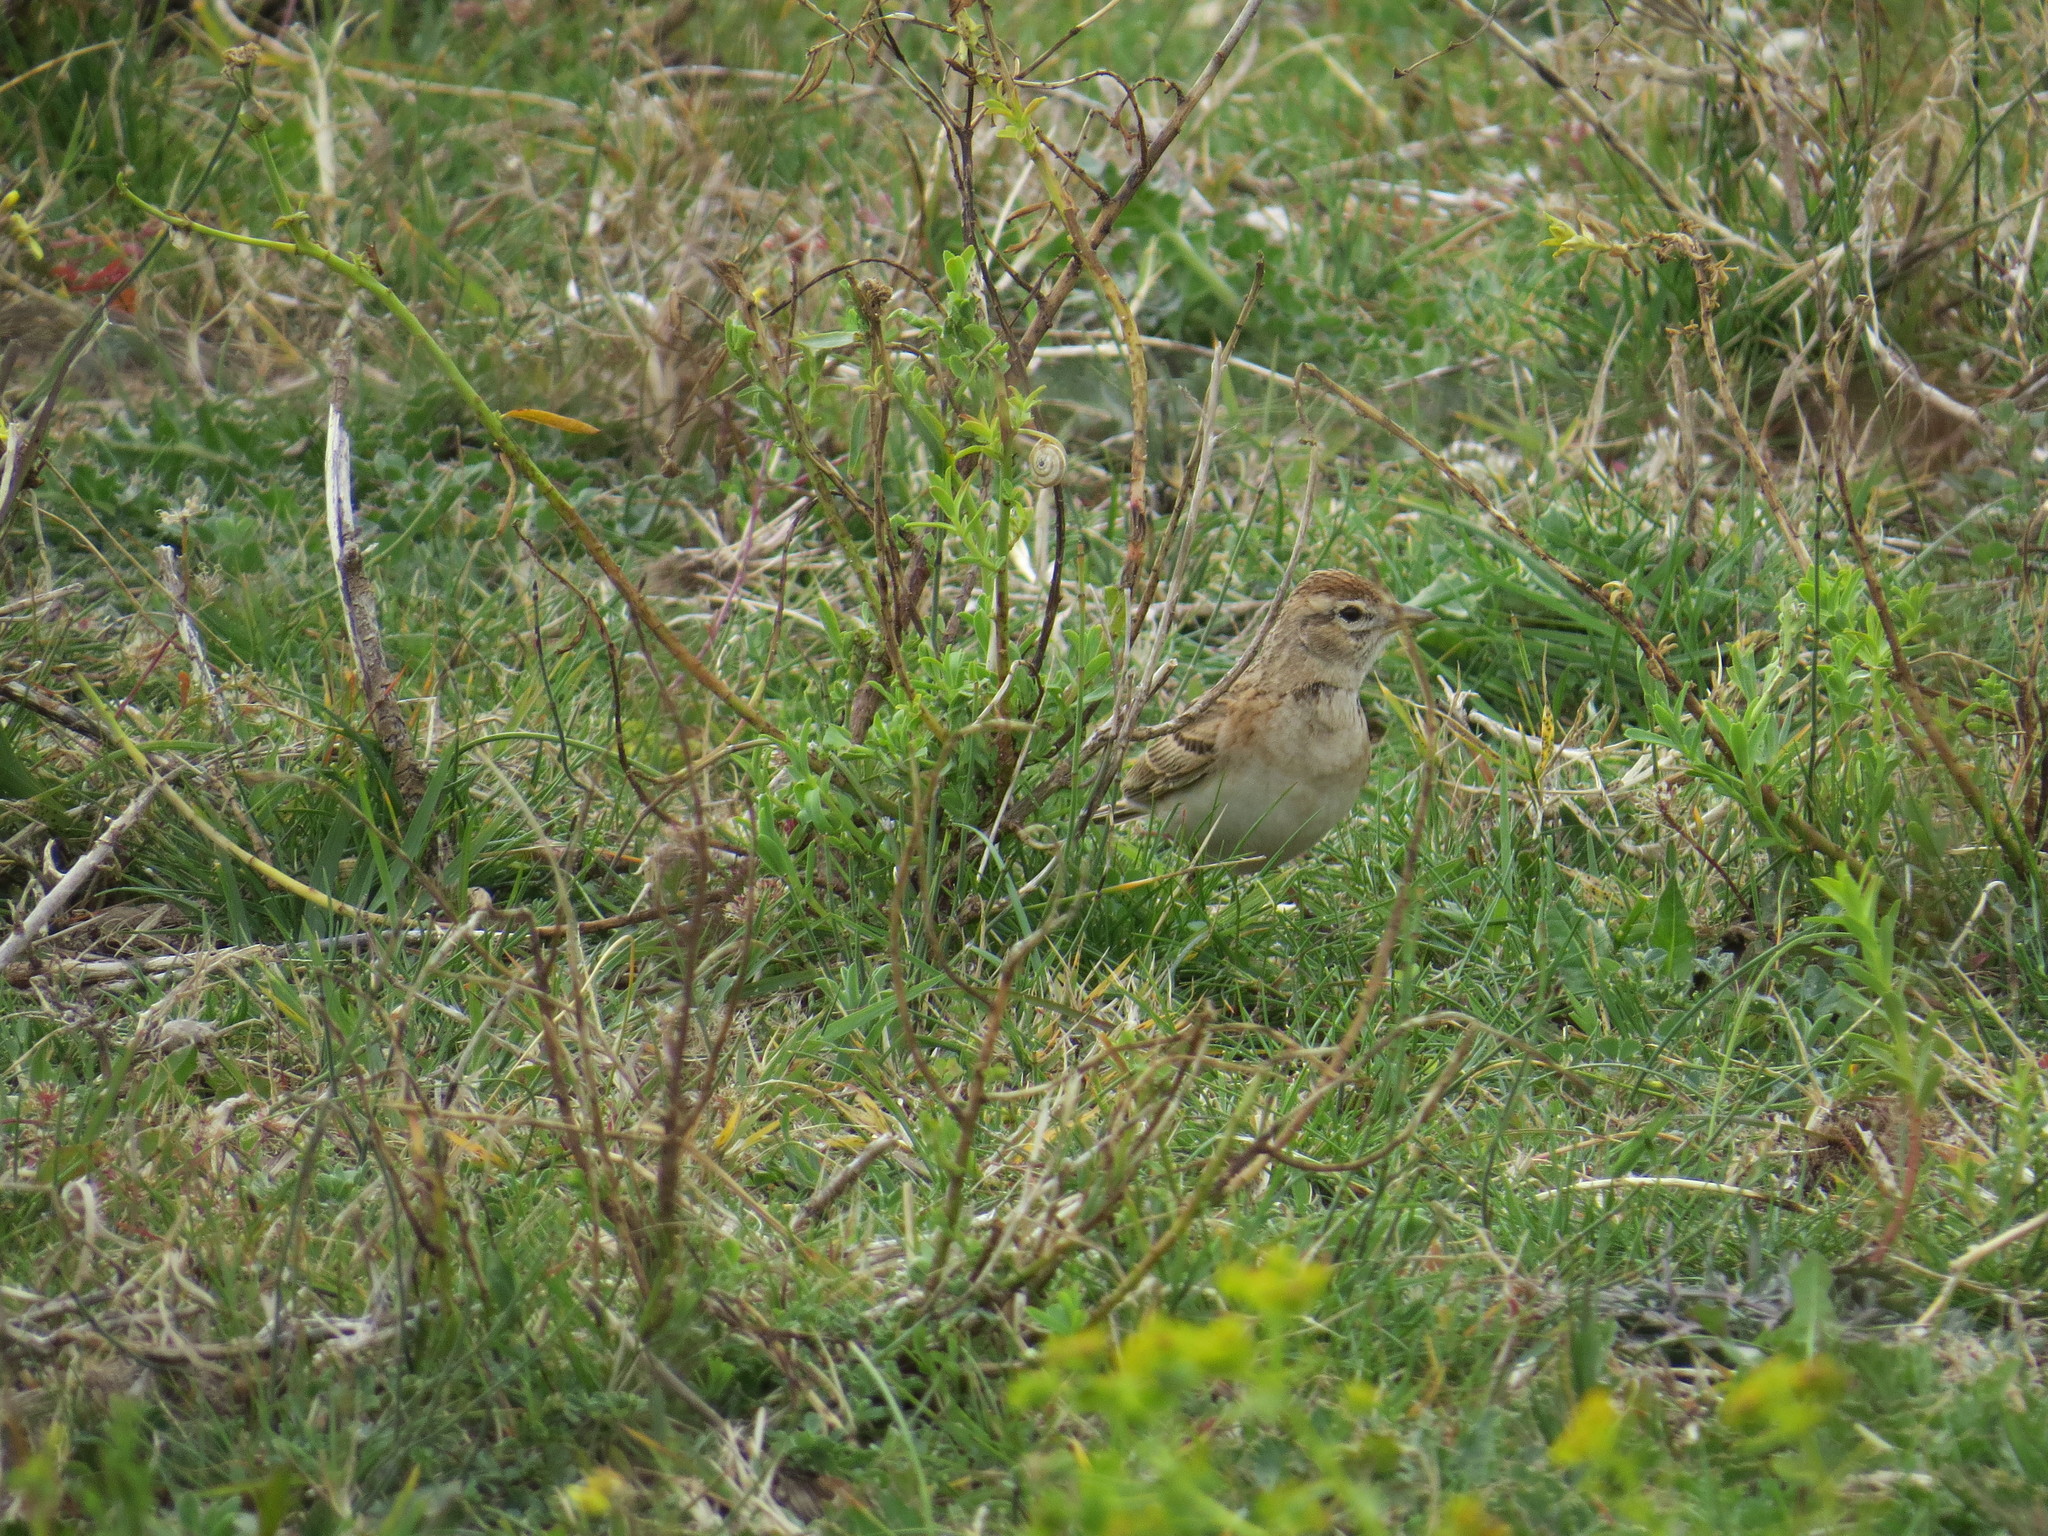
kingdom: Animalia
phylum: Chordata
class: Aves
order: Passeriformes
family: Alaudidae
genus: Calandrella
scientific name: Calandrella brachydactyla
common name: Greater short-toed lark
